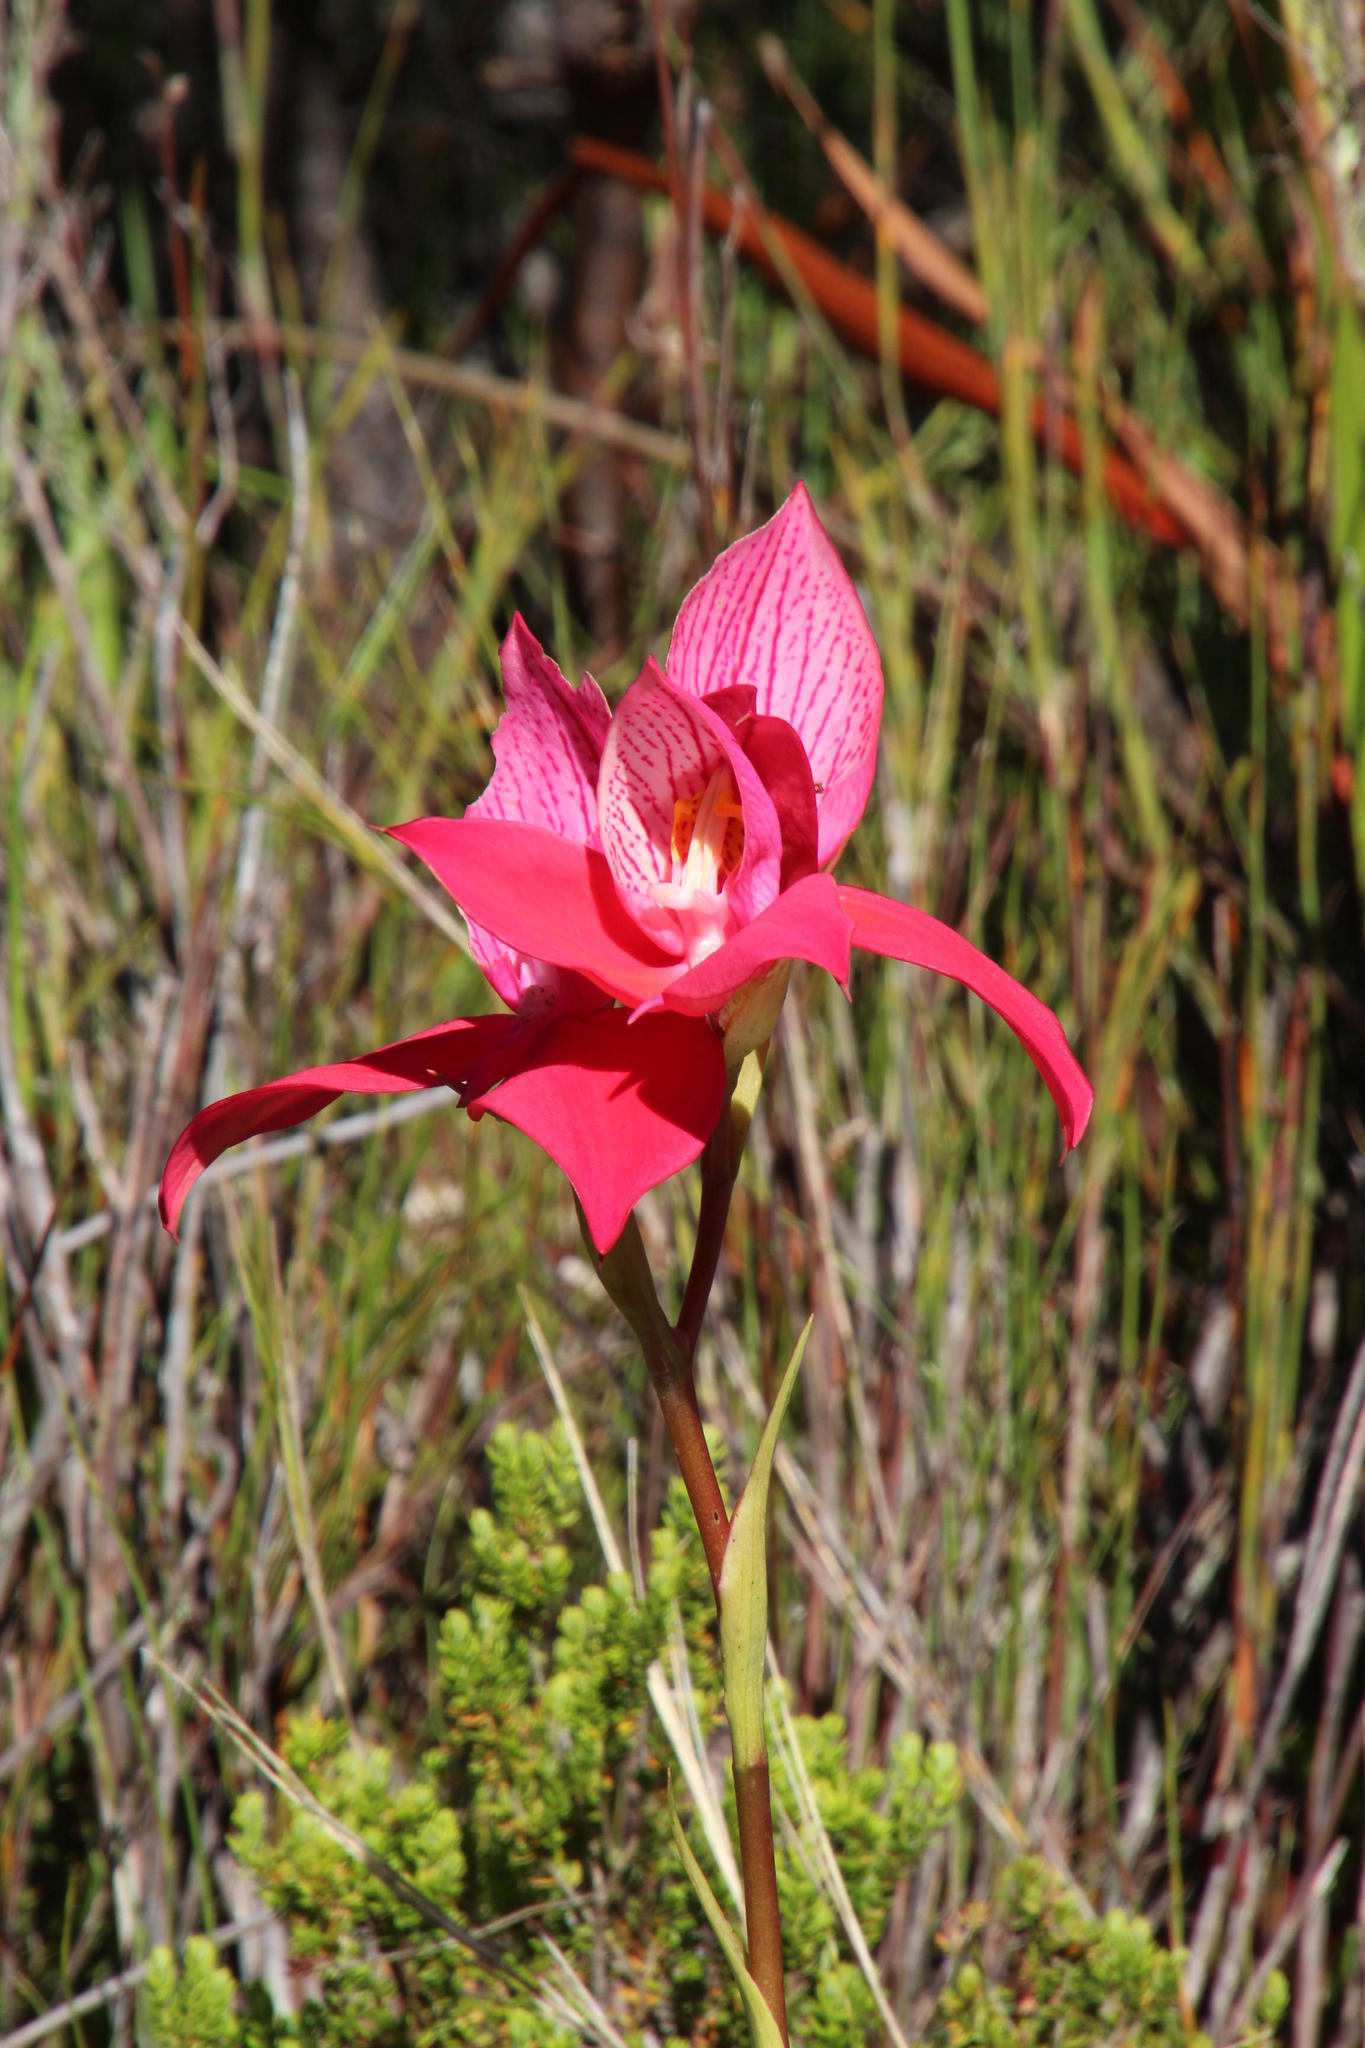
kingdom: Plantae
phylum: Tracheophyta
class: Liliopsida
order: Asparagales
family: Orchidaceae
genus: Disa
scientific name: Disa uniflora
